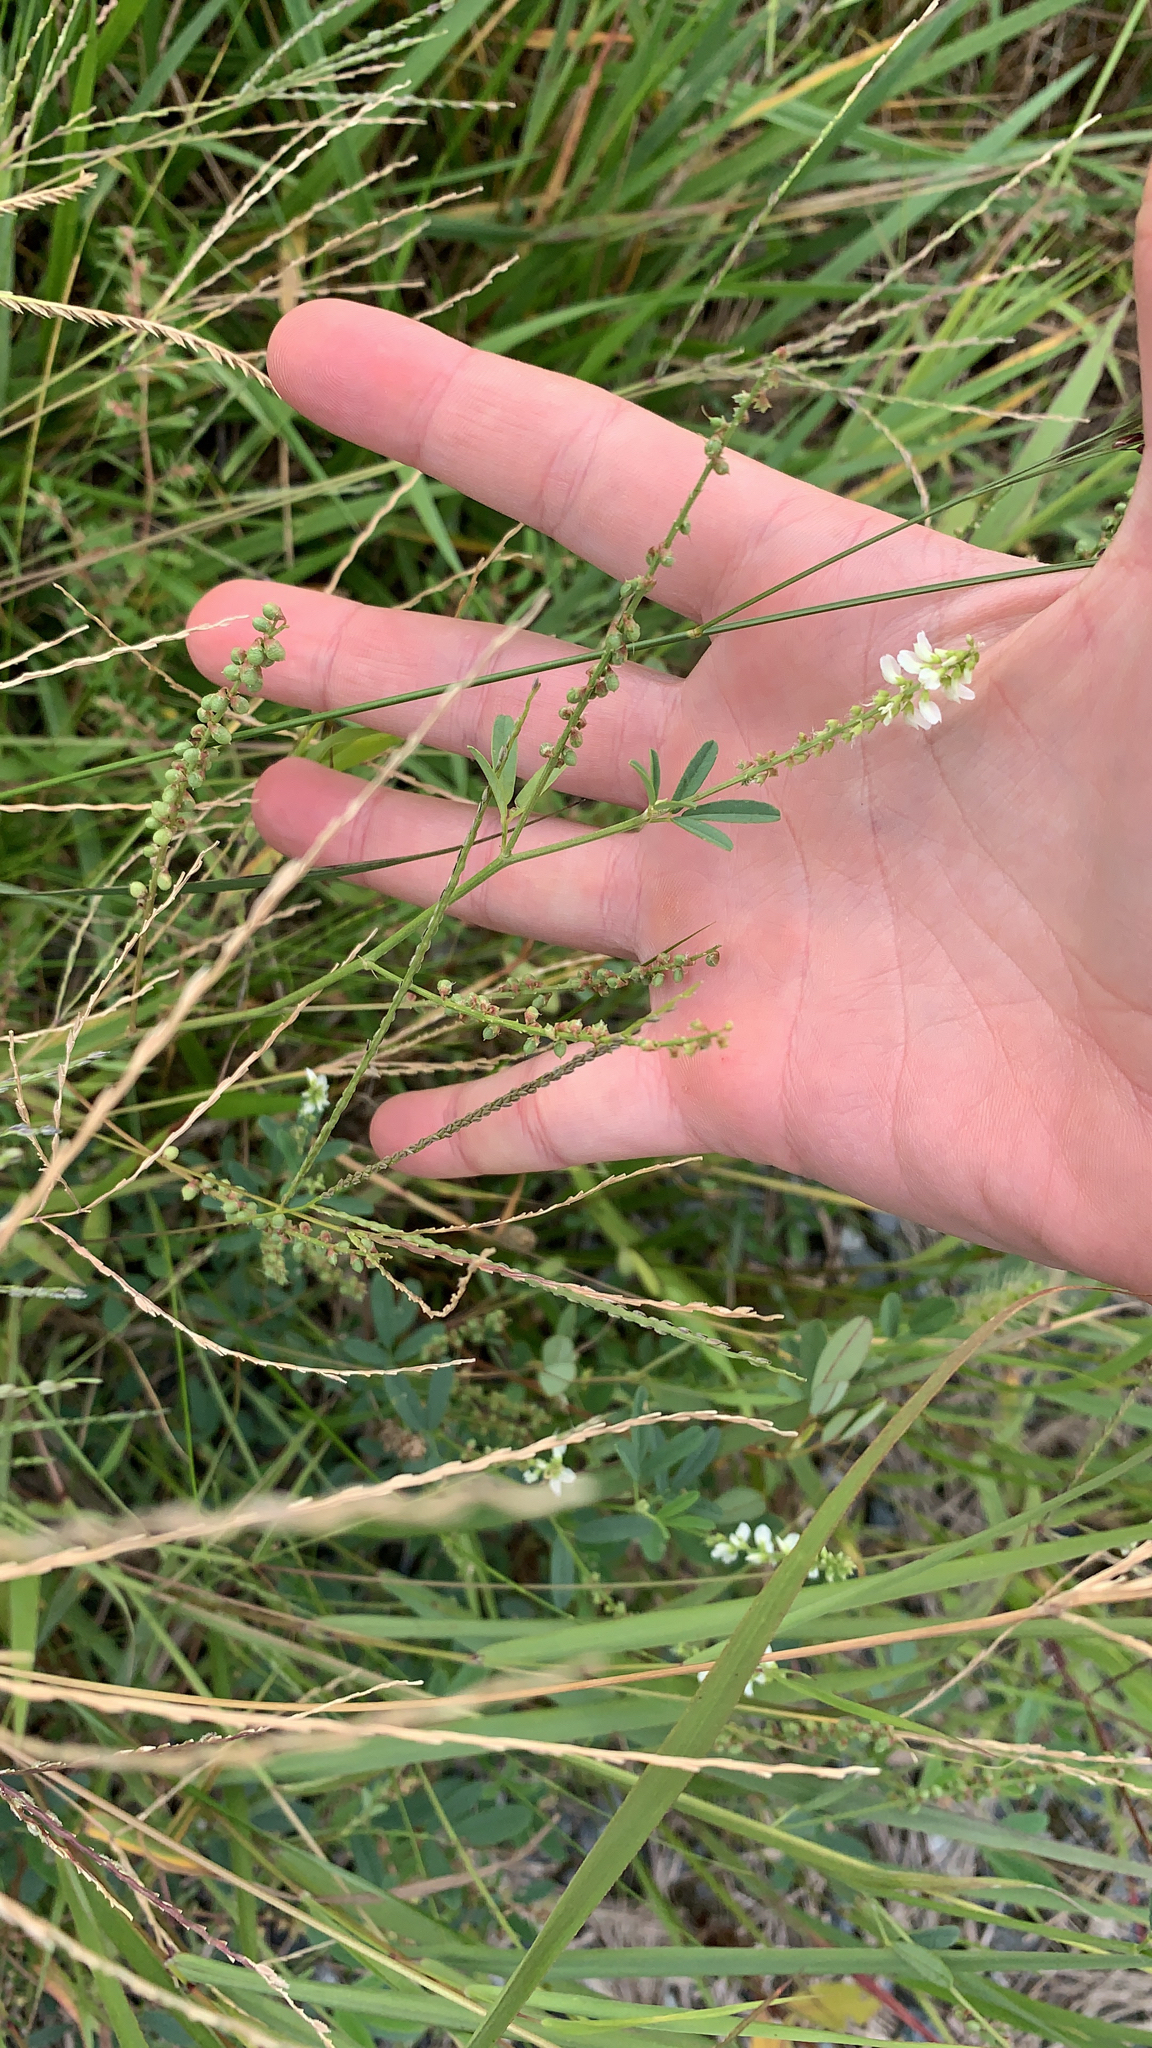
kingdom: Plantae
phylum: Tracheophyta
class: Magnoliopsida
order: Fabales
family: Fabaceae
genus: Melilotus
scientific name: Melilotus albus
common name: White melilot
